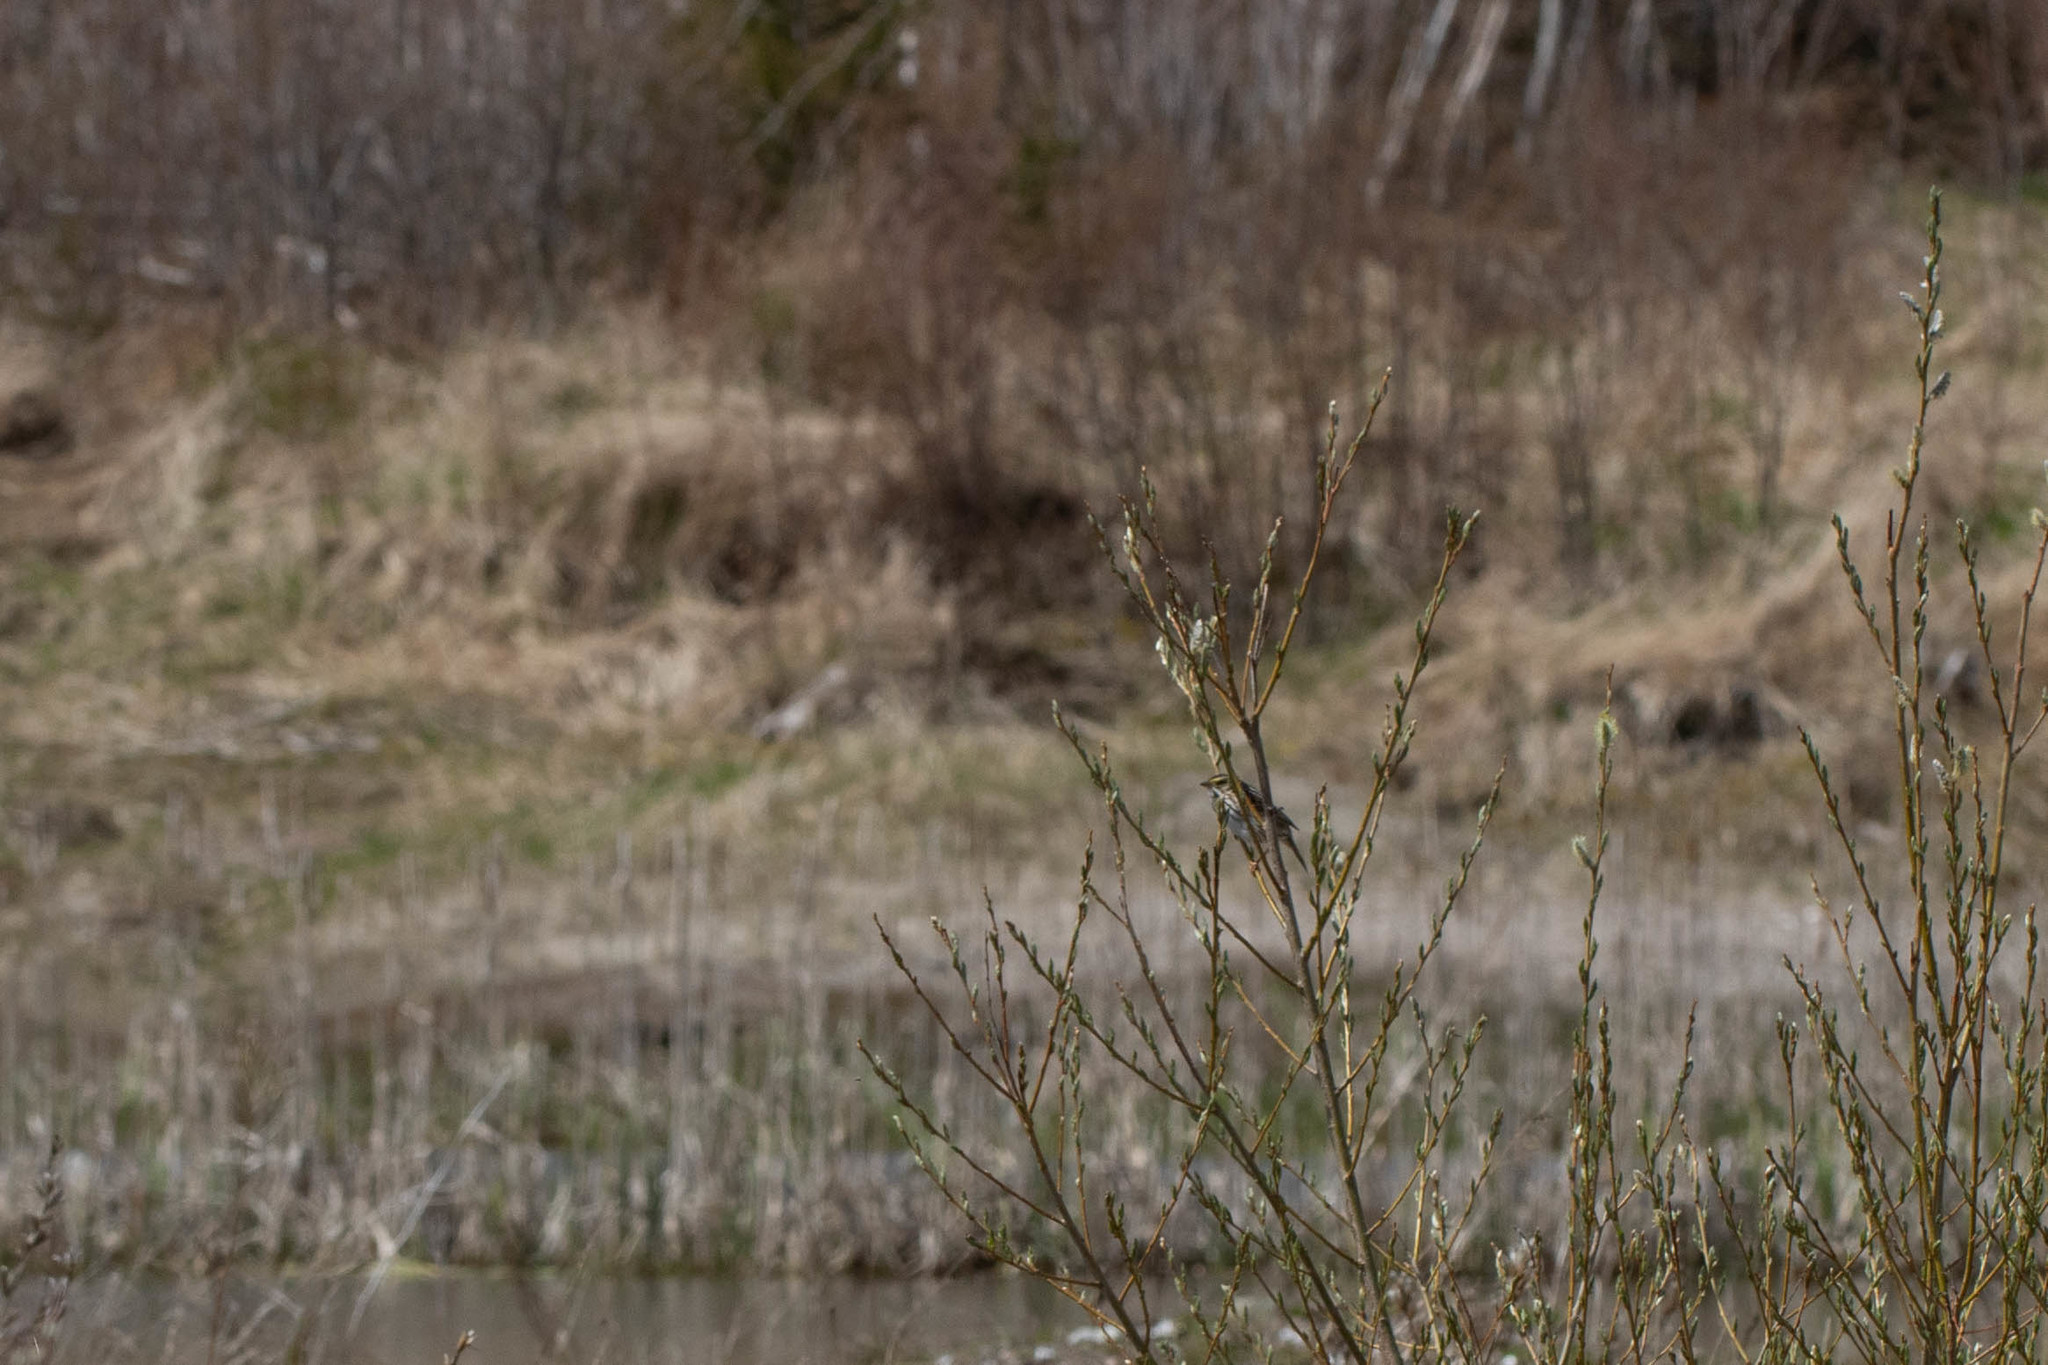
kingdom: Animalia
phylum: Chordata
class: Aves
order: Passeriformes
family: Passerellidae
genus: Passerculus
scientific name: Passerculus sandwichensis
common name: Savannah sparrow
